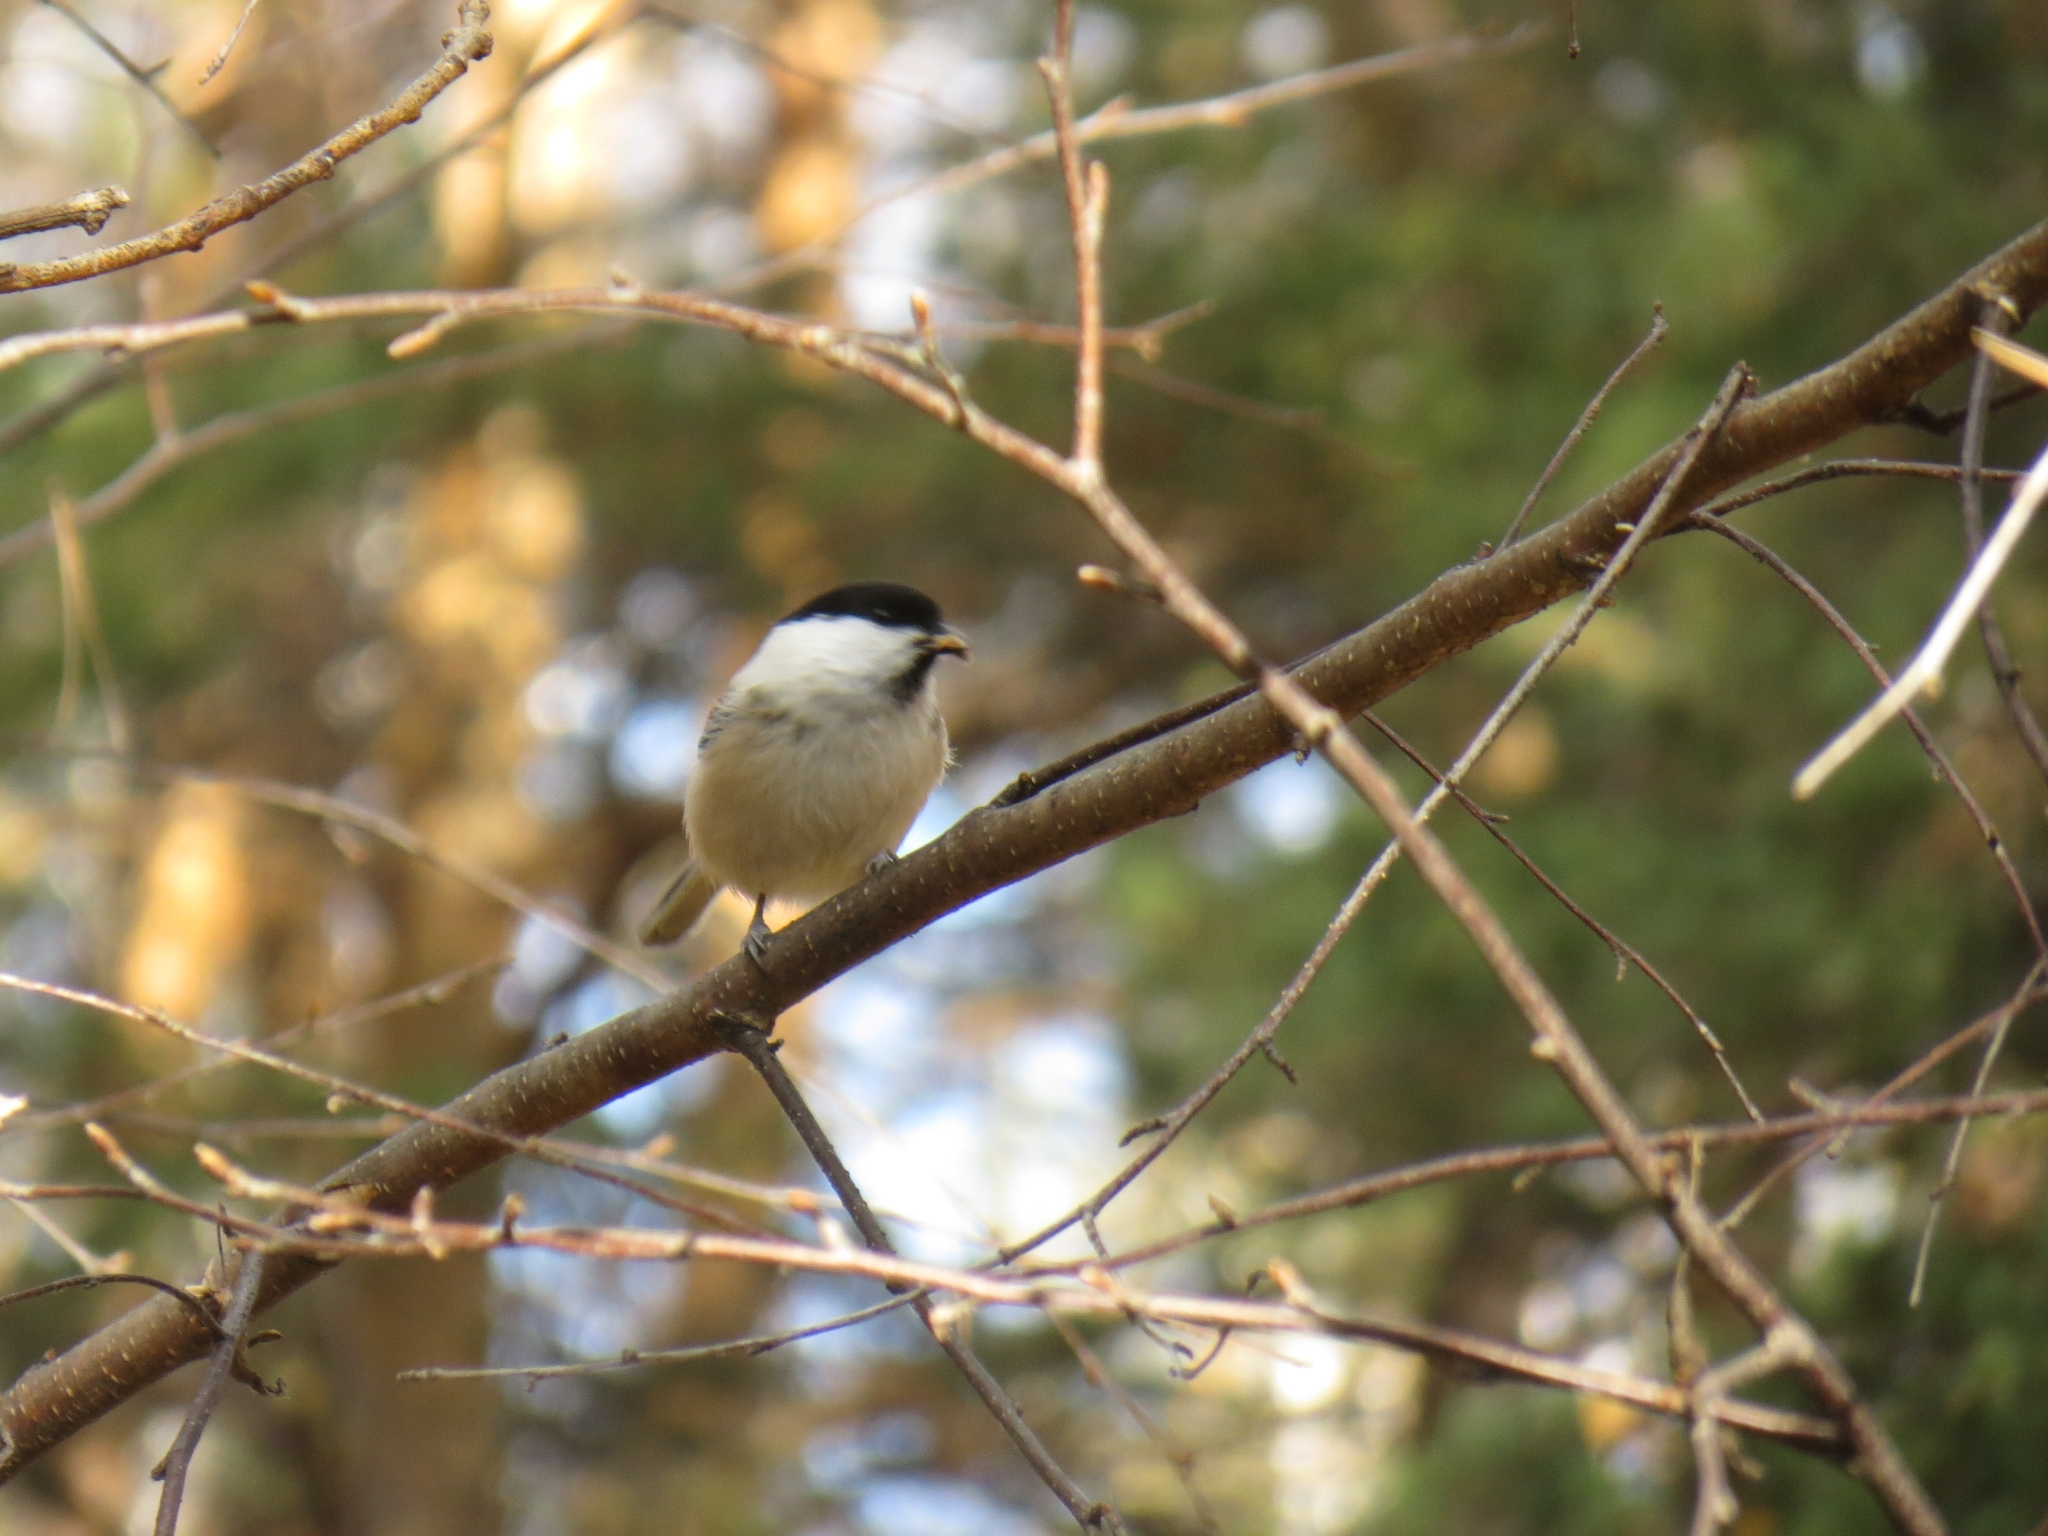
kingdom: Animalia
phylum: Chordata
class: Aves
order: Passeriformes
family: Paridae
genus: Poecile
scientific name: Poecile montanus
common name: Willow tit
